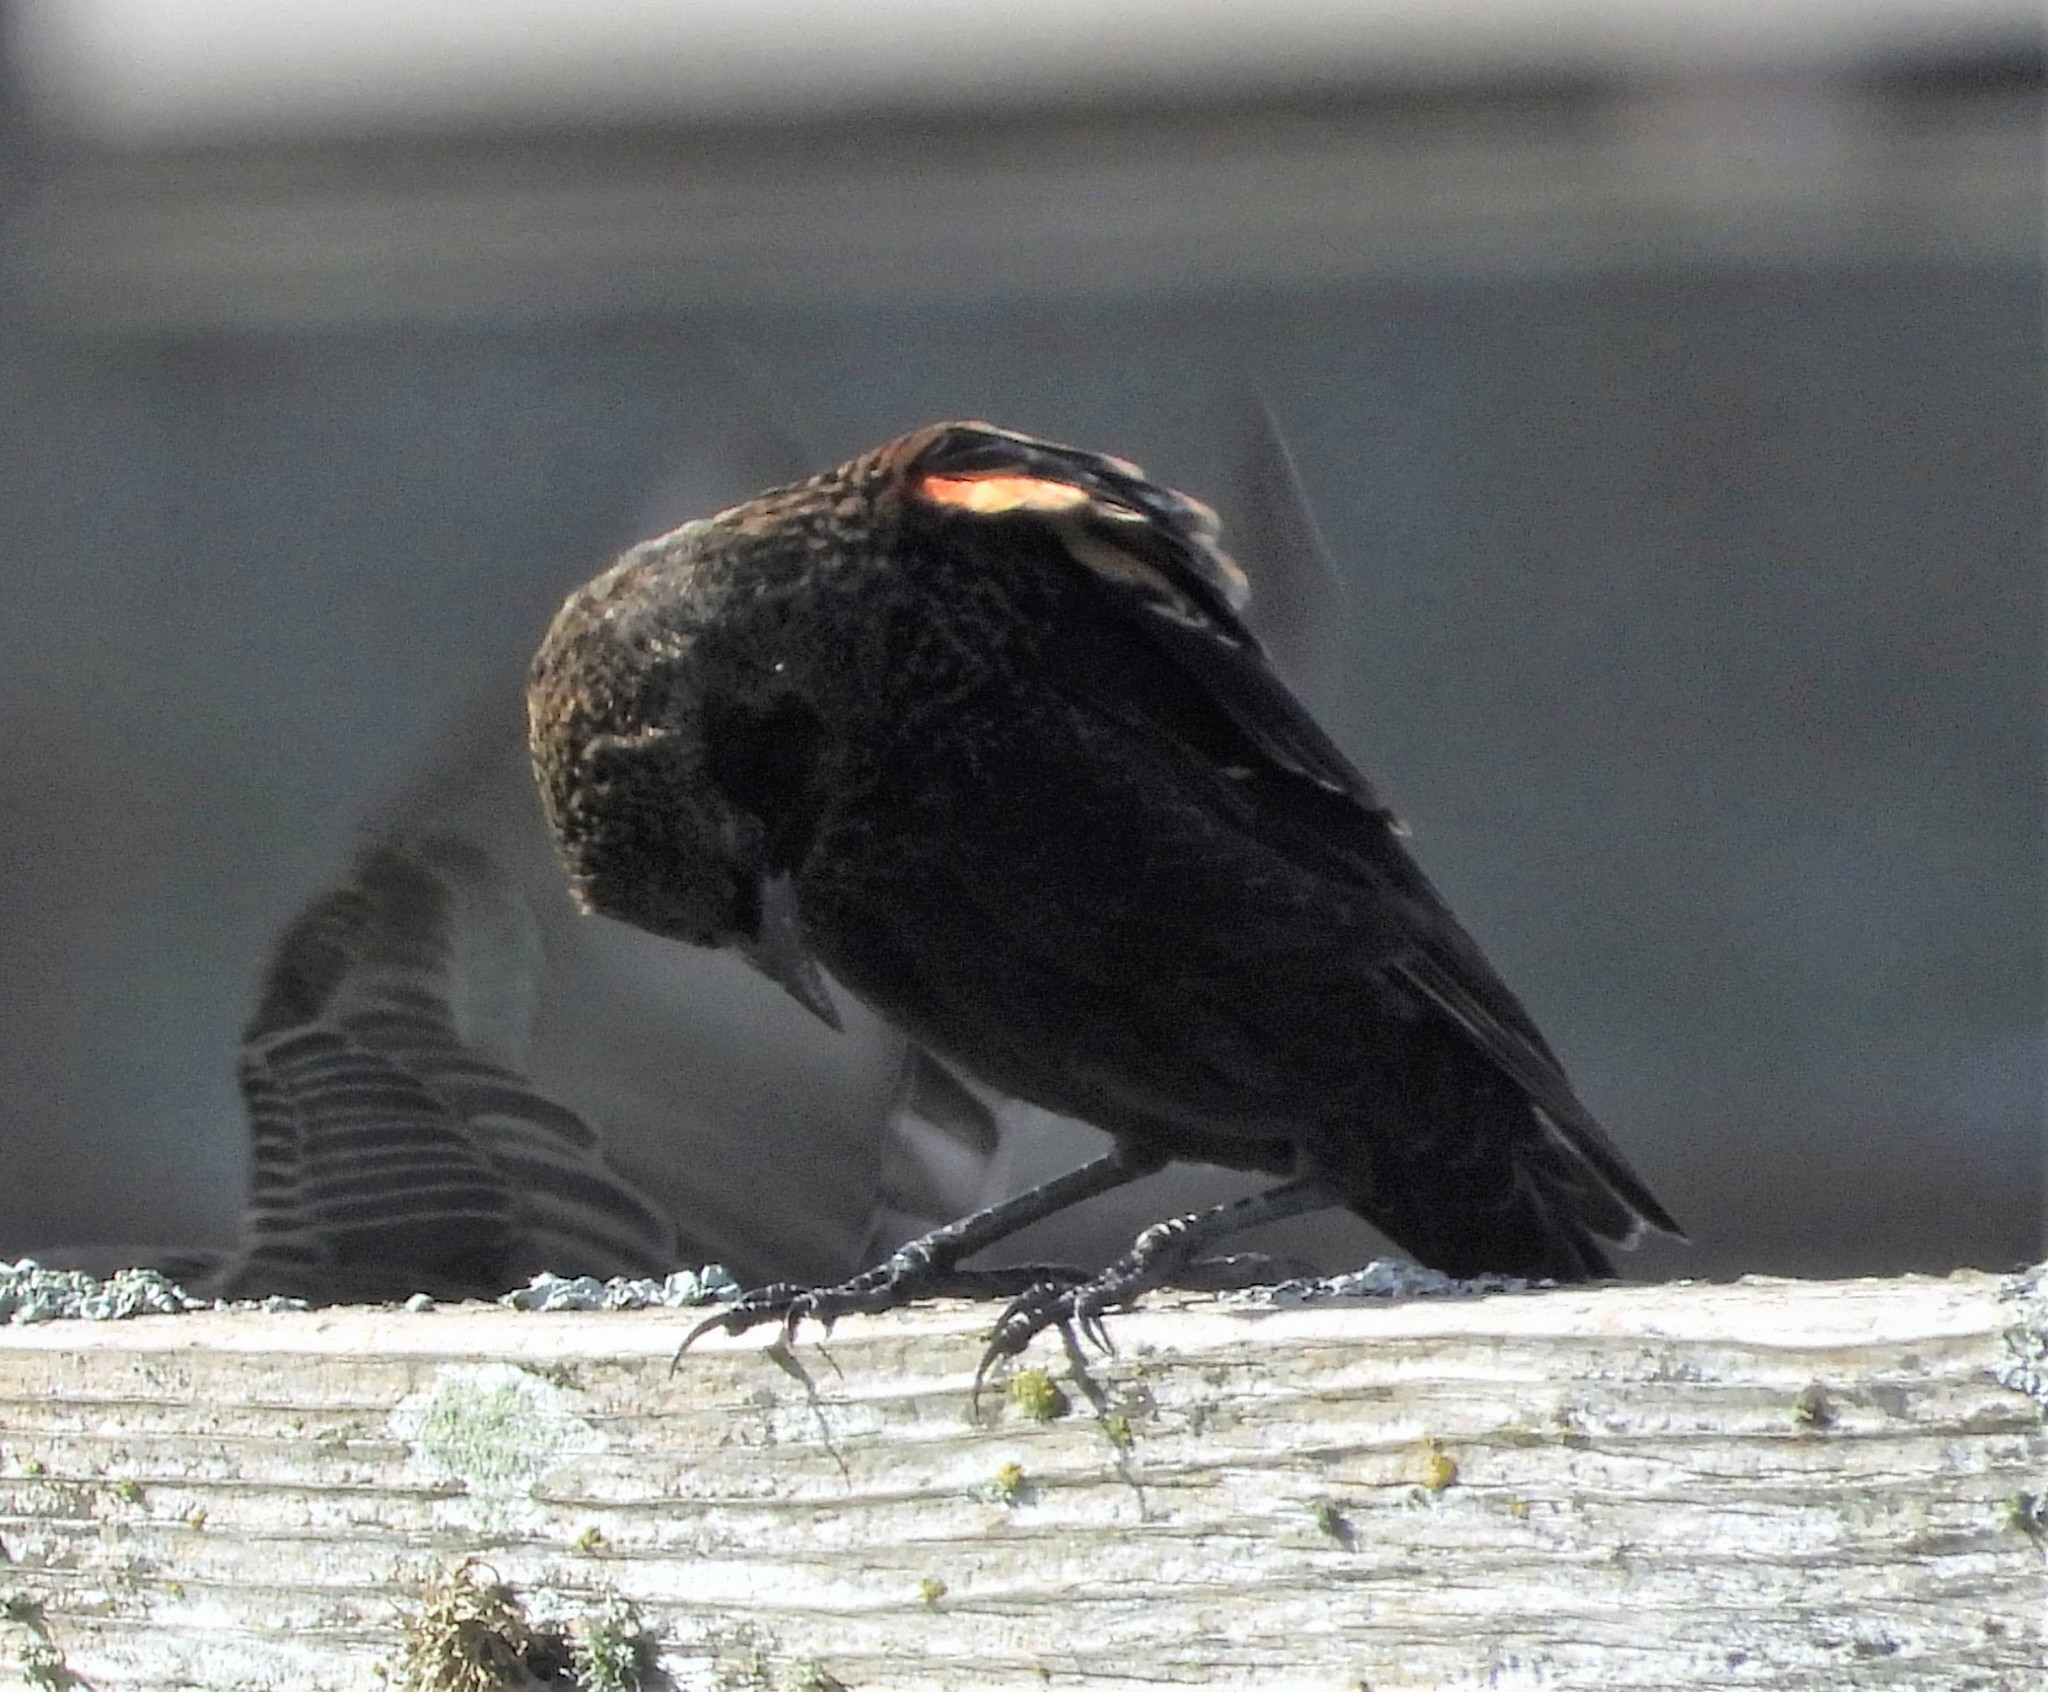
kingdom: Animalia
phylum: Chordata
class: Aves
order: Passeriformes
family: Icteridae
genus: Agelaius
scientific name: Agelaius phoeniceus
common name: Red-winged blackbird
